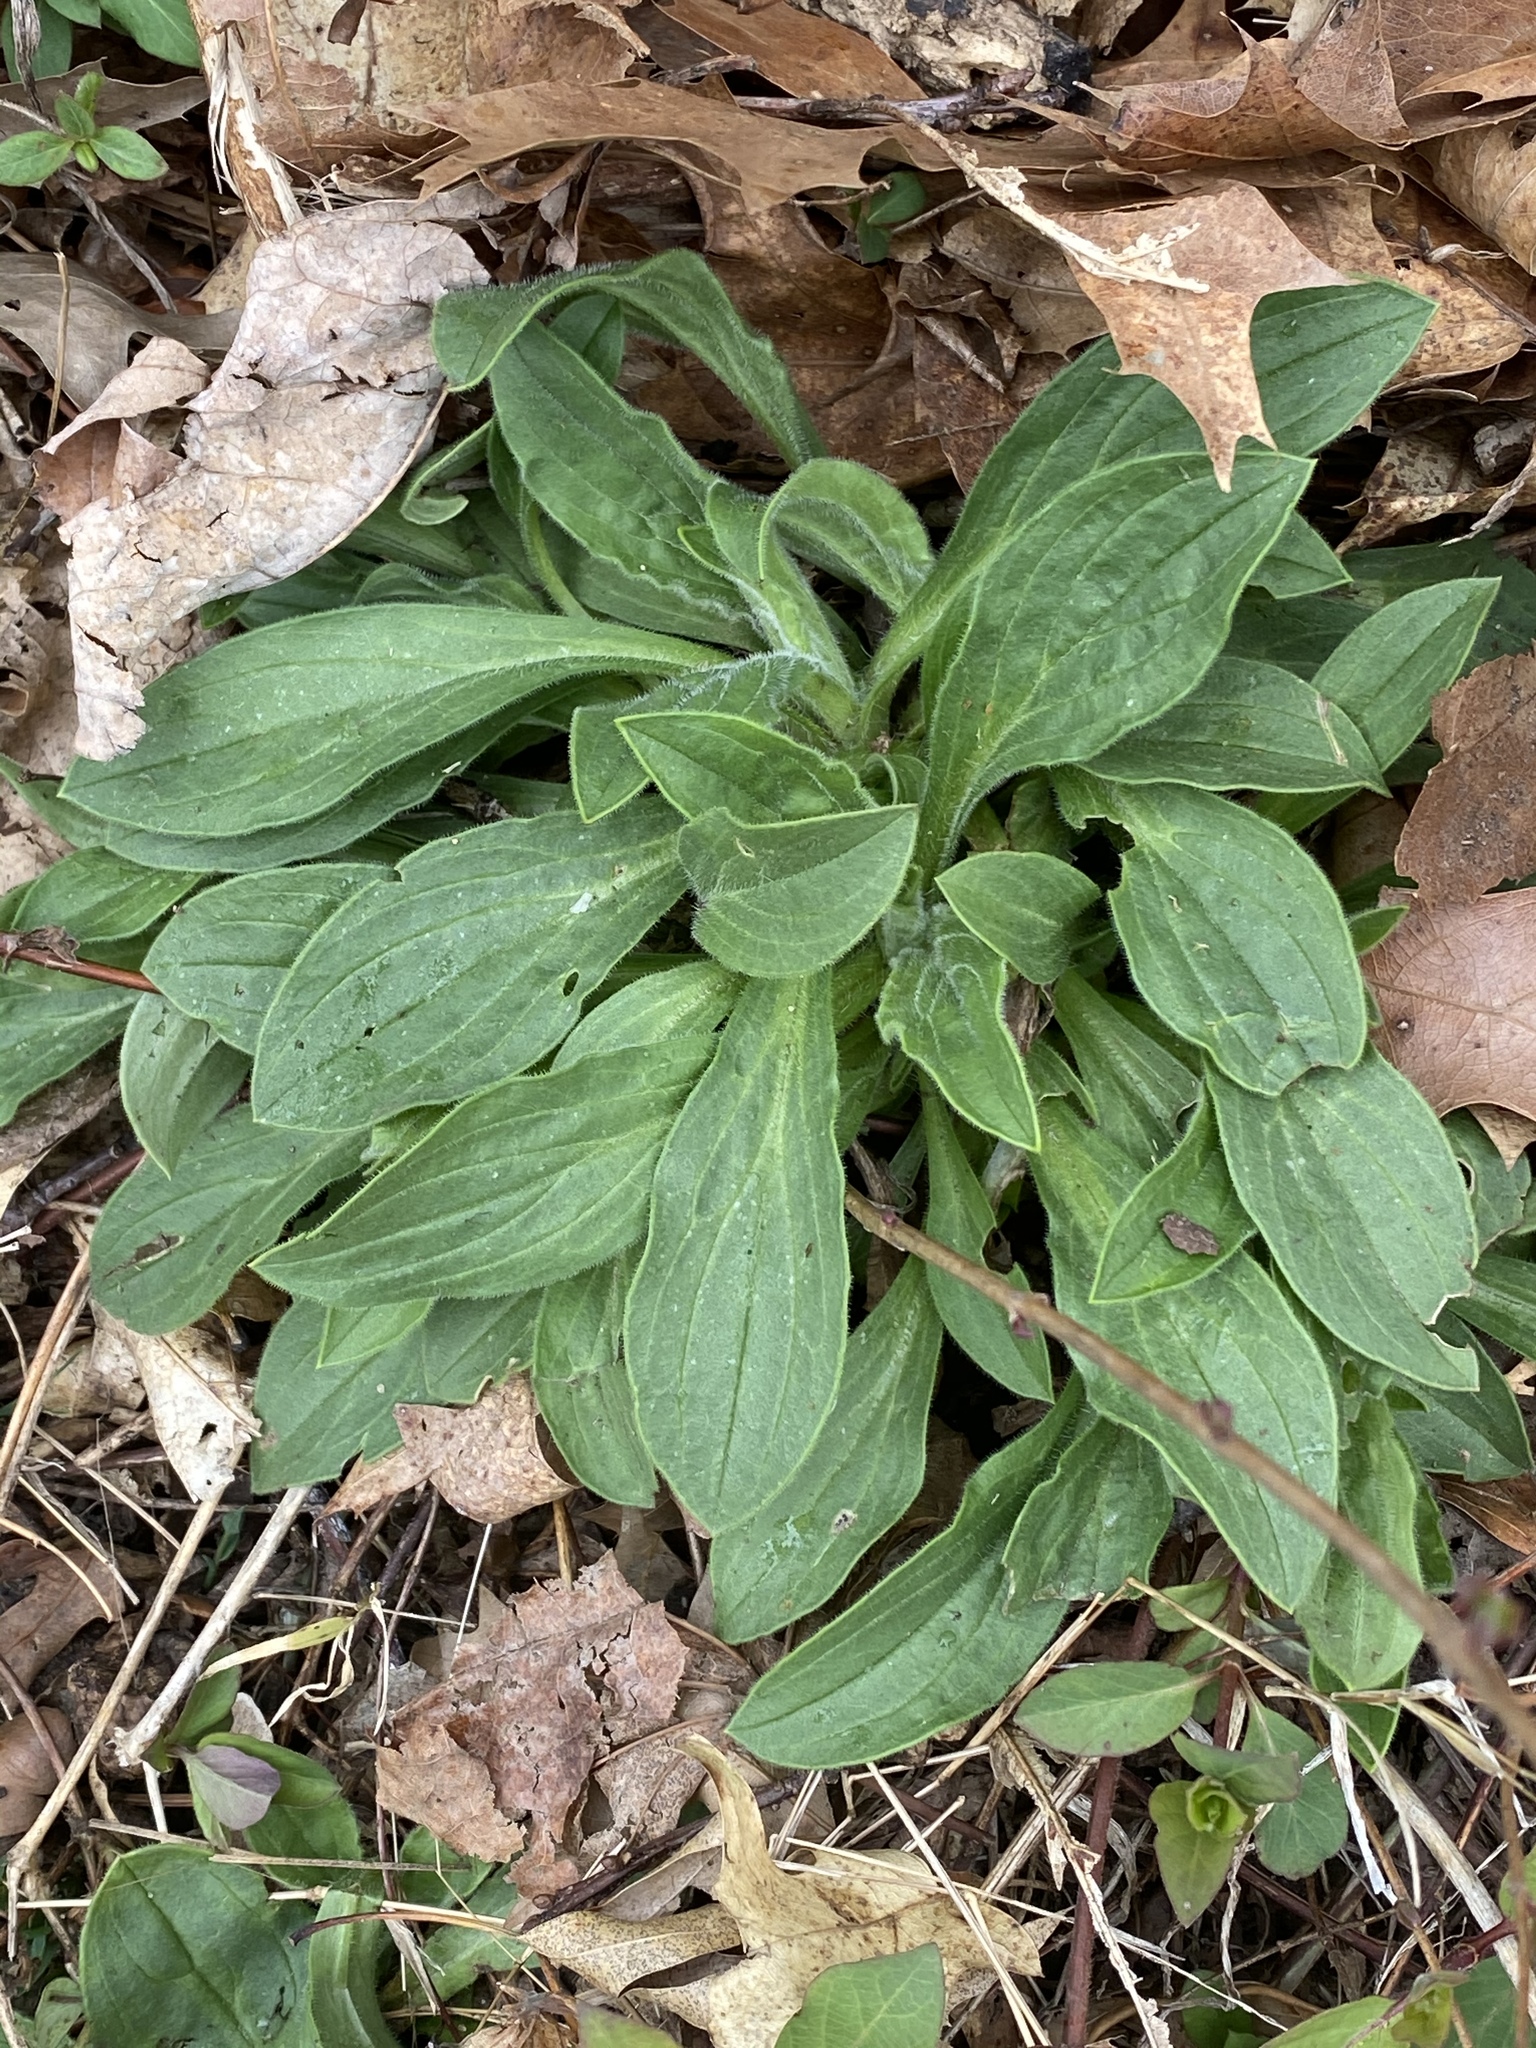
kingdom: Plantae
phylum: Tracheophyta
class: Magnoliopsida
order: Caryophyllales
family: Caryophyllaceae
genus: Silene
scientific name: Silene latifolia
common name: White campion
